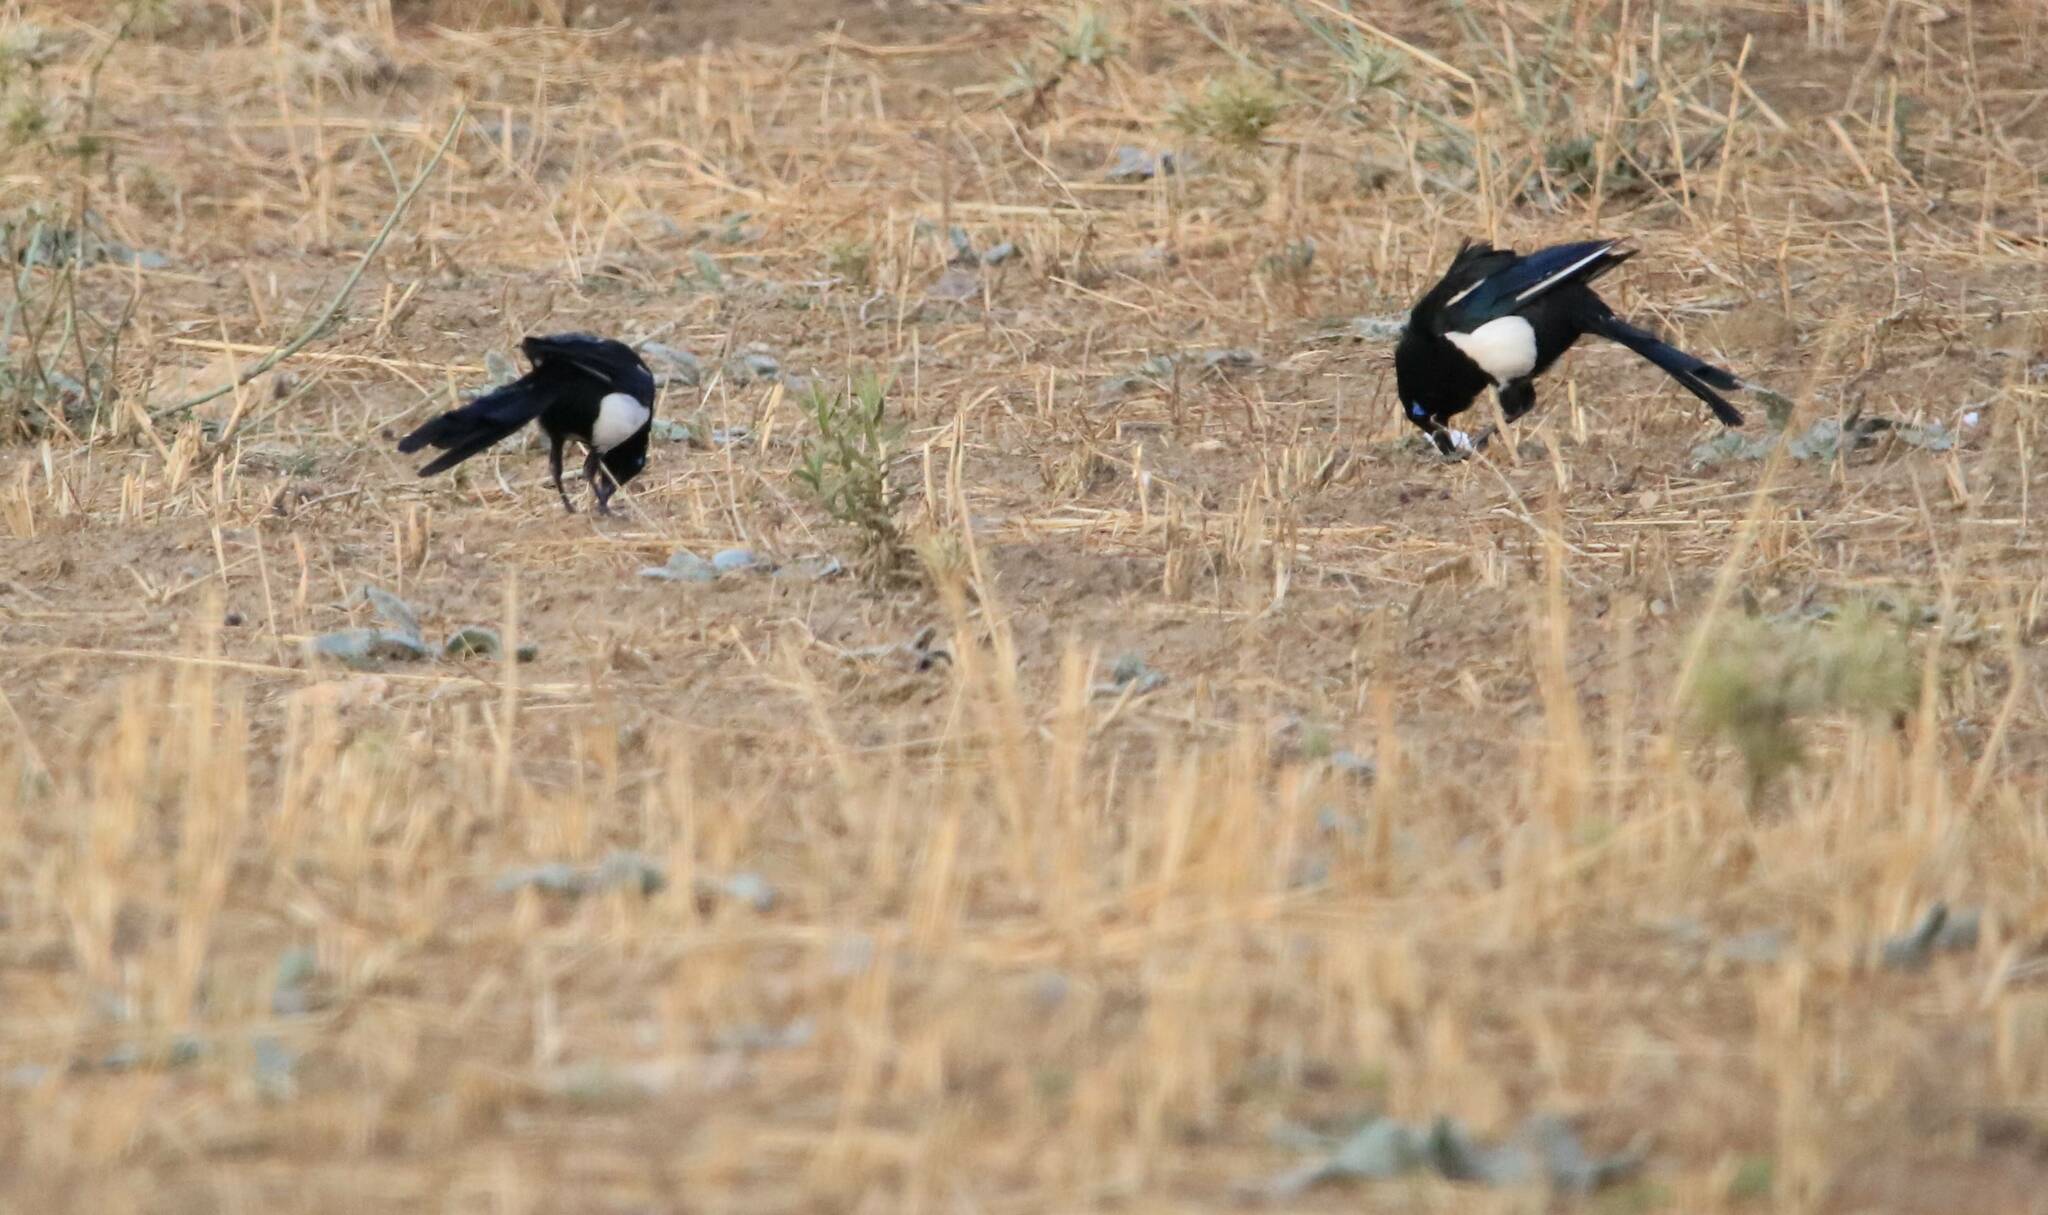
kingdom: Animalia
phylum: Chordata
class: Aves
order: Passeriformes
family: Corvidae
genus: Pica
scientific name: Pica mauritanica
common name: Maghreb magpie
